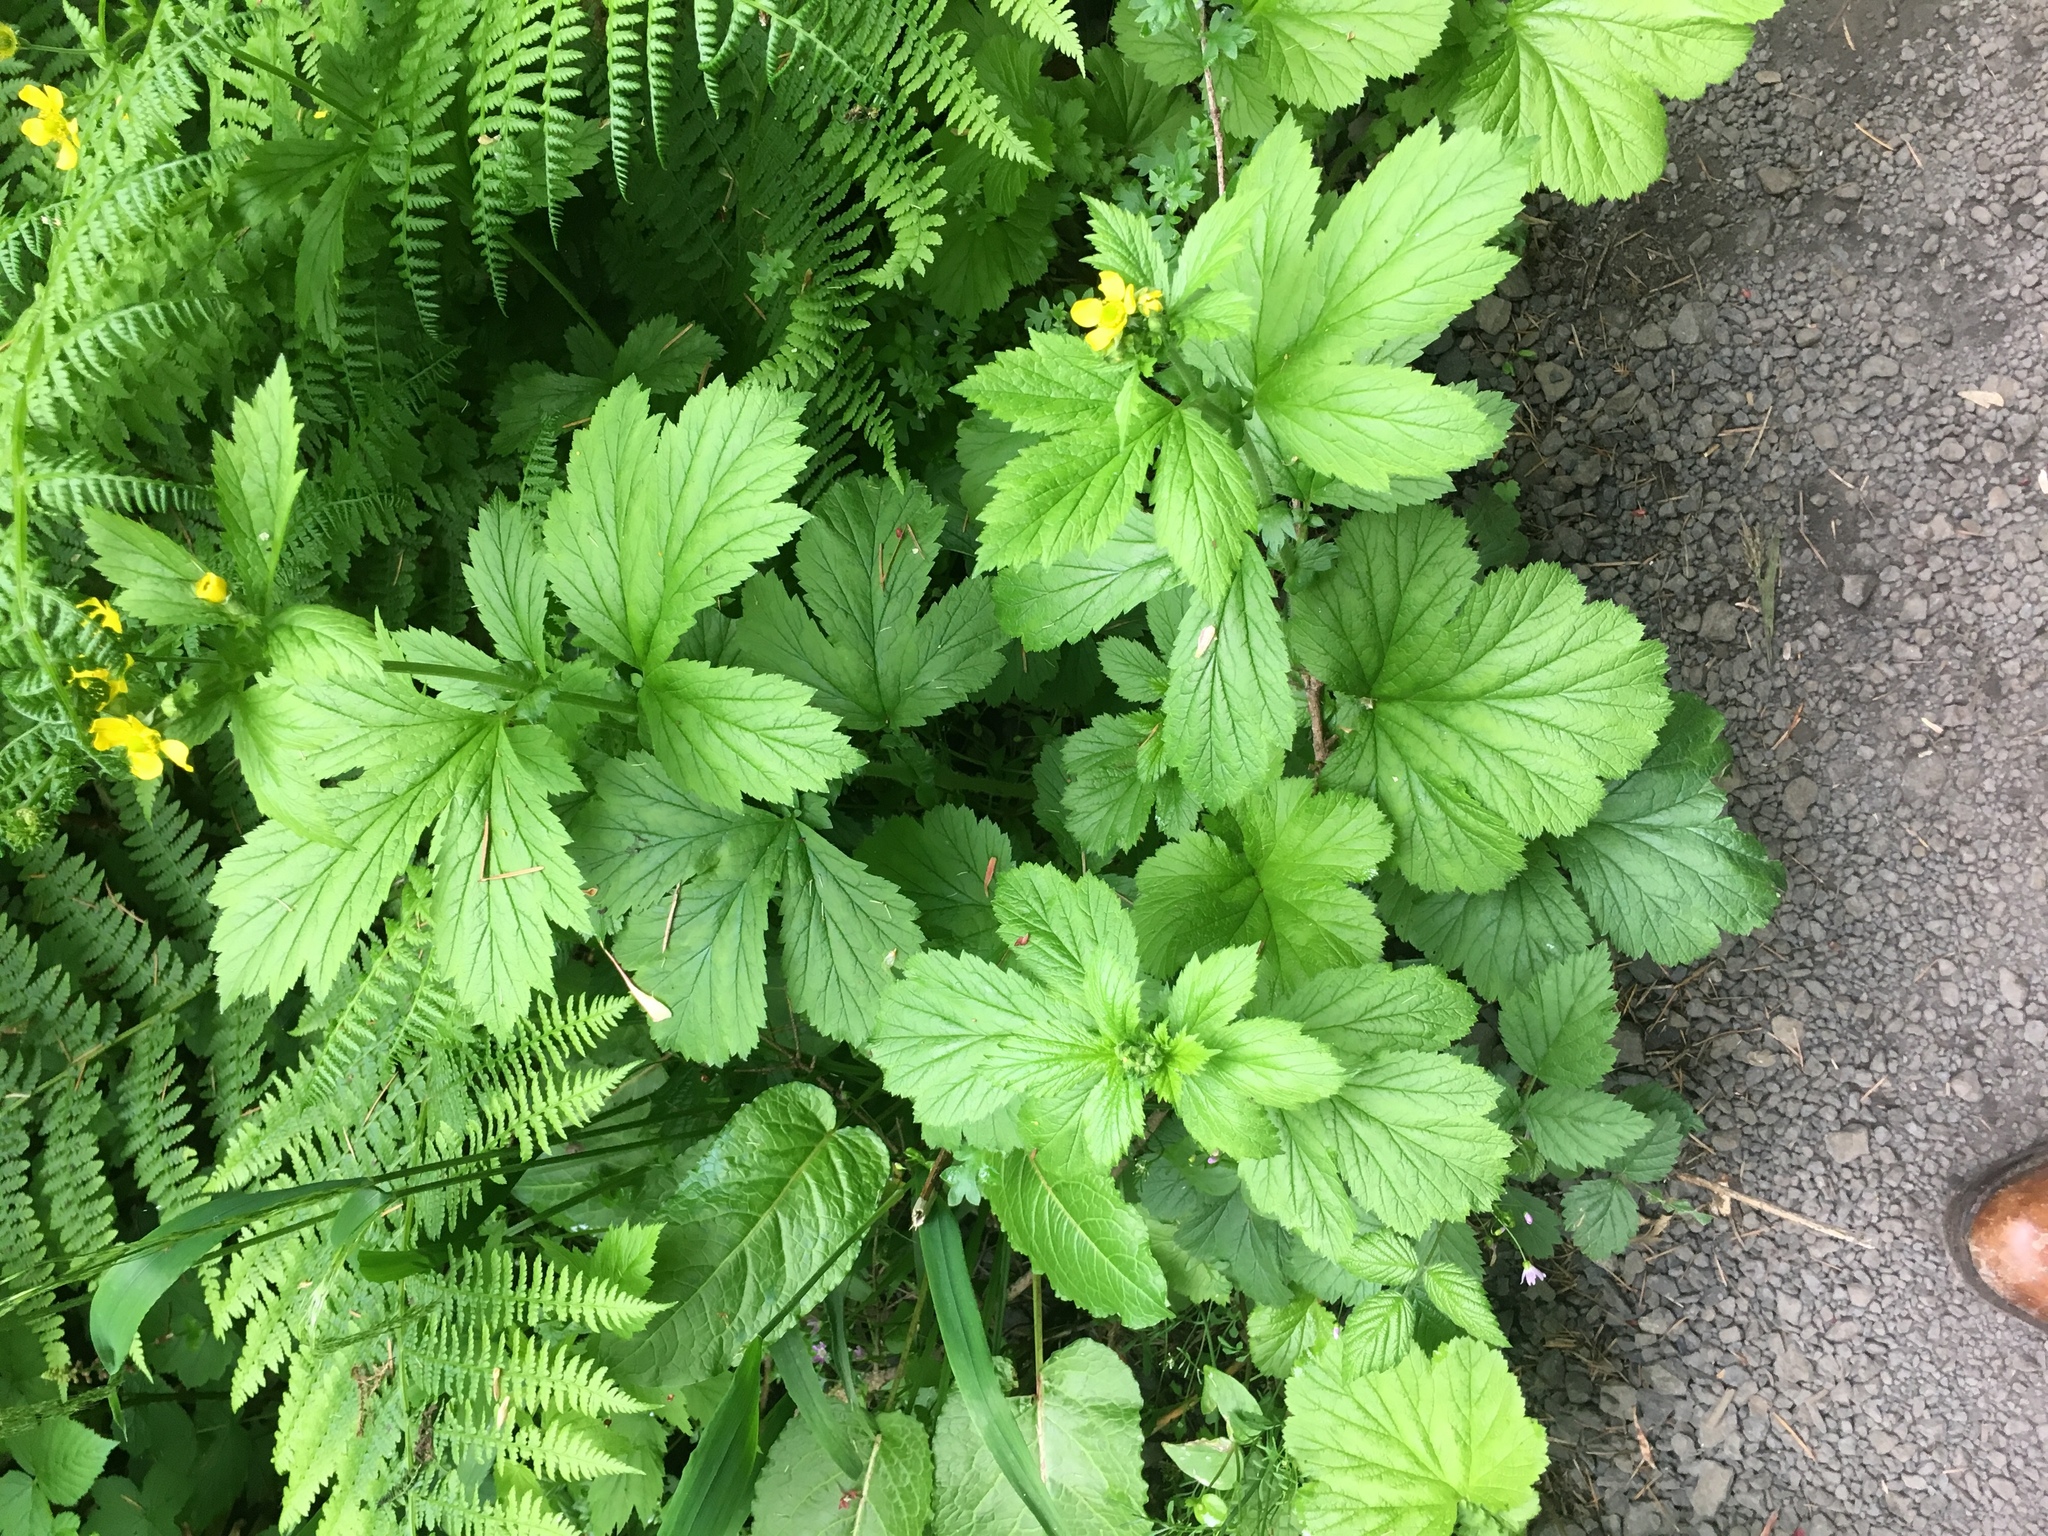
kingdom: Plantae
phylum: Tracheophyta
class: Magnoliopsida
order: Rosales
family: Rosaceae
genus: Geum
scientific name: Geum macrophyllum
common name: Large-leaved avens
